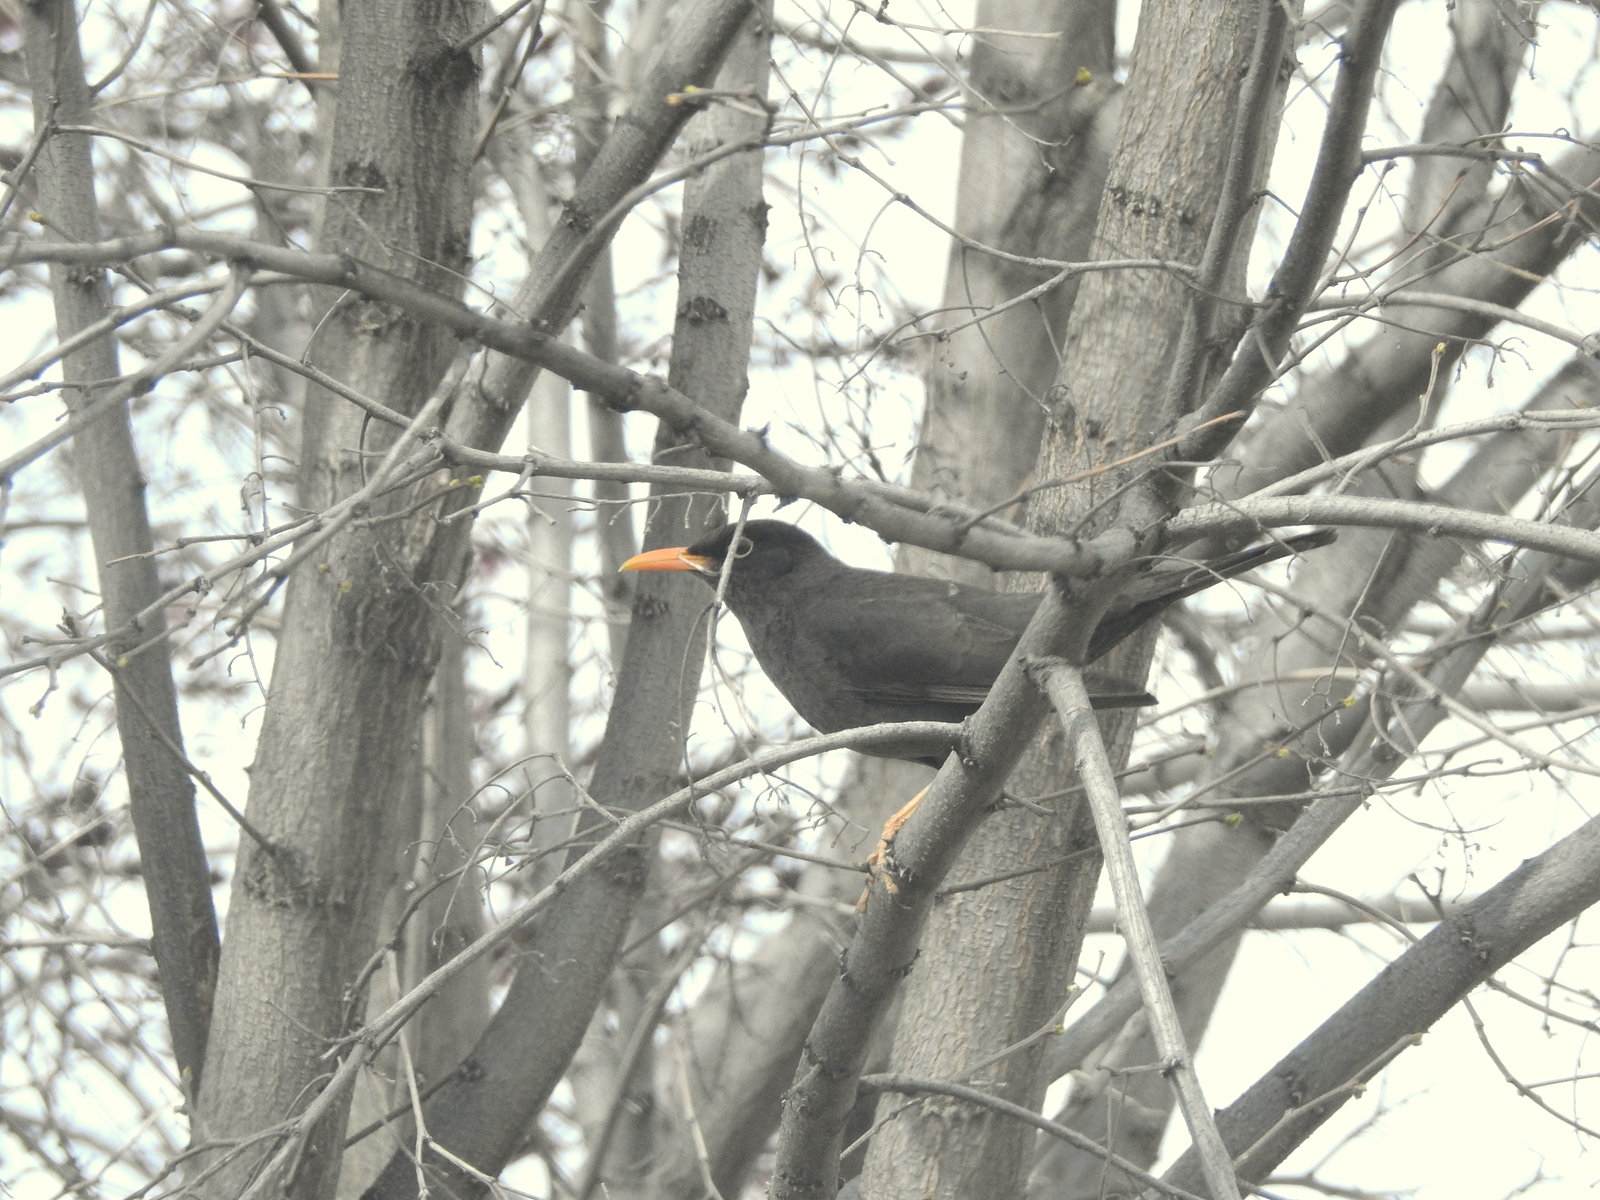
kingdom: Animalia
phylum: Chordata
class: Aves
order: Passeriformes
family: Turdidae
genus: Turdus
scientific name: Turdus chiguanco
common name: Chiguanco thrush
